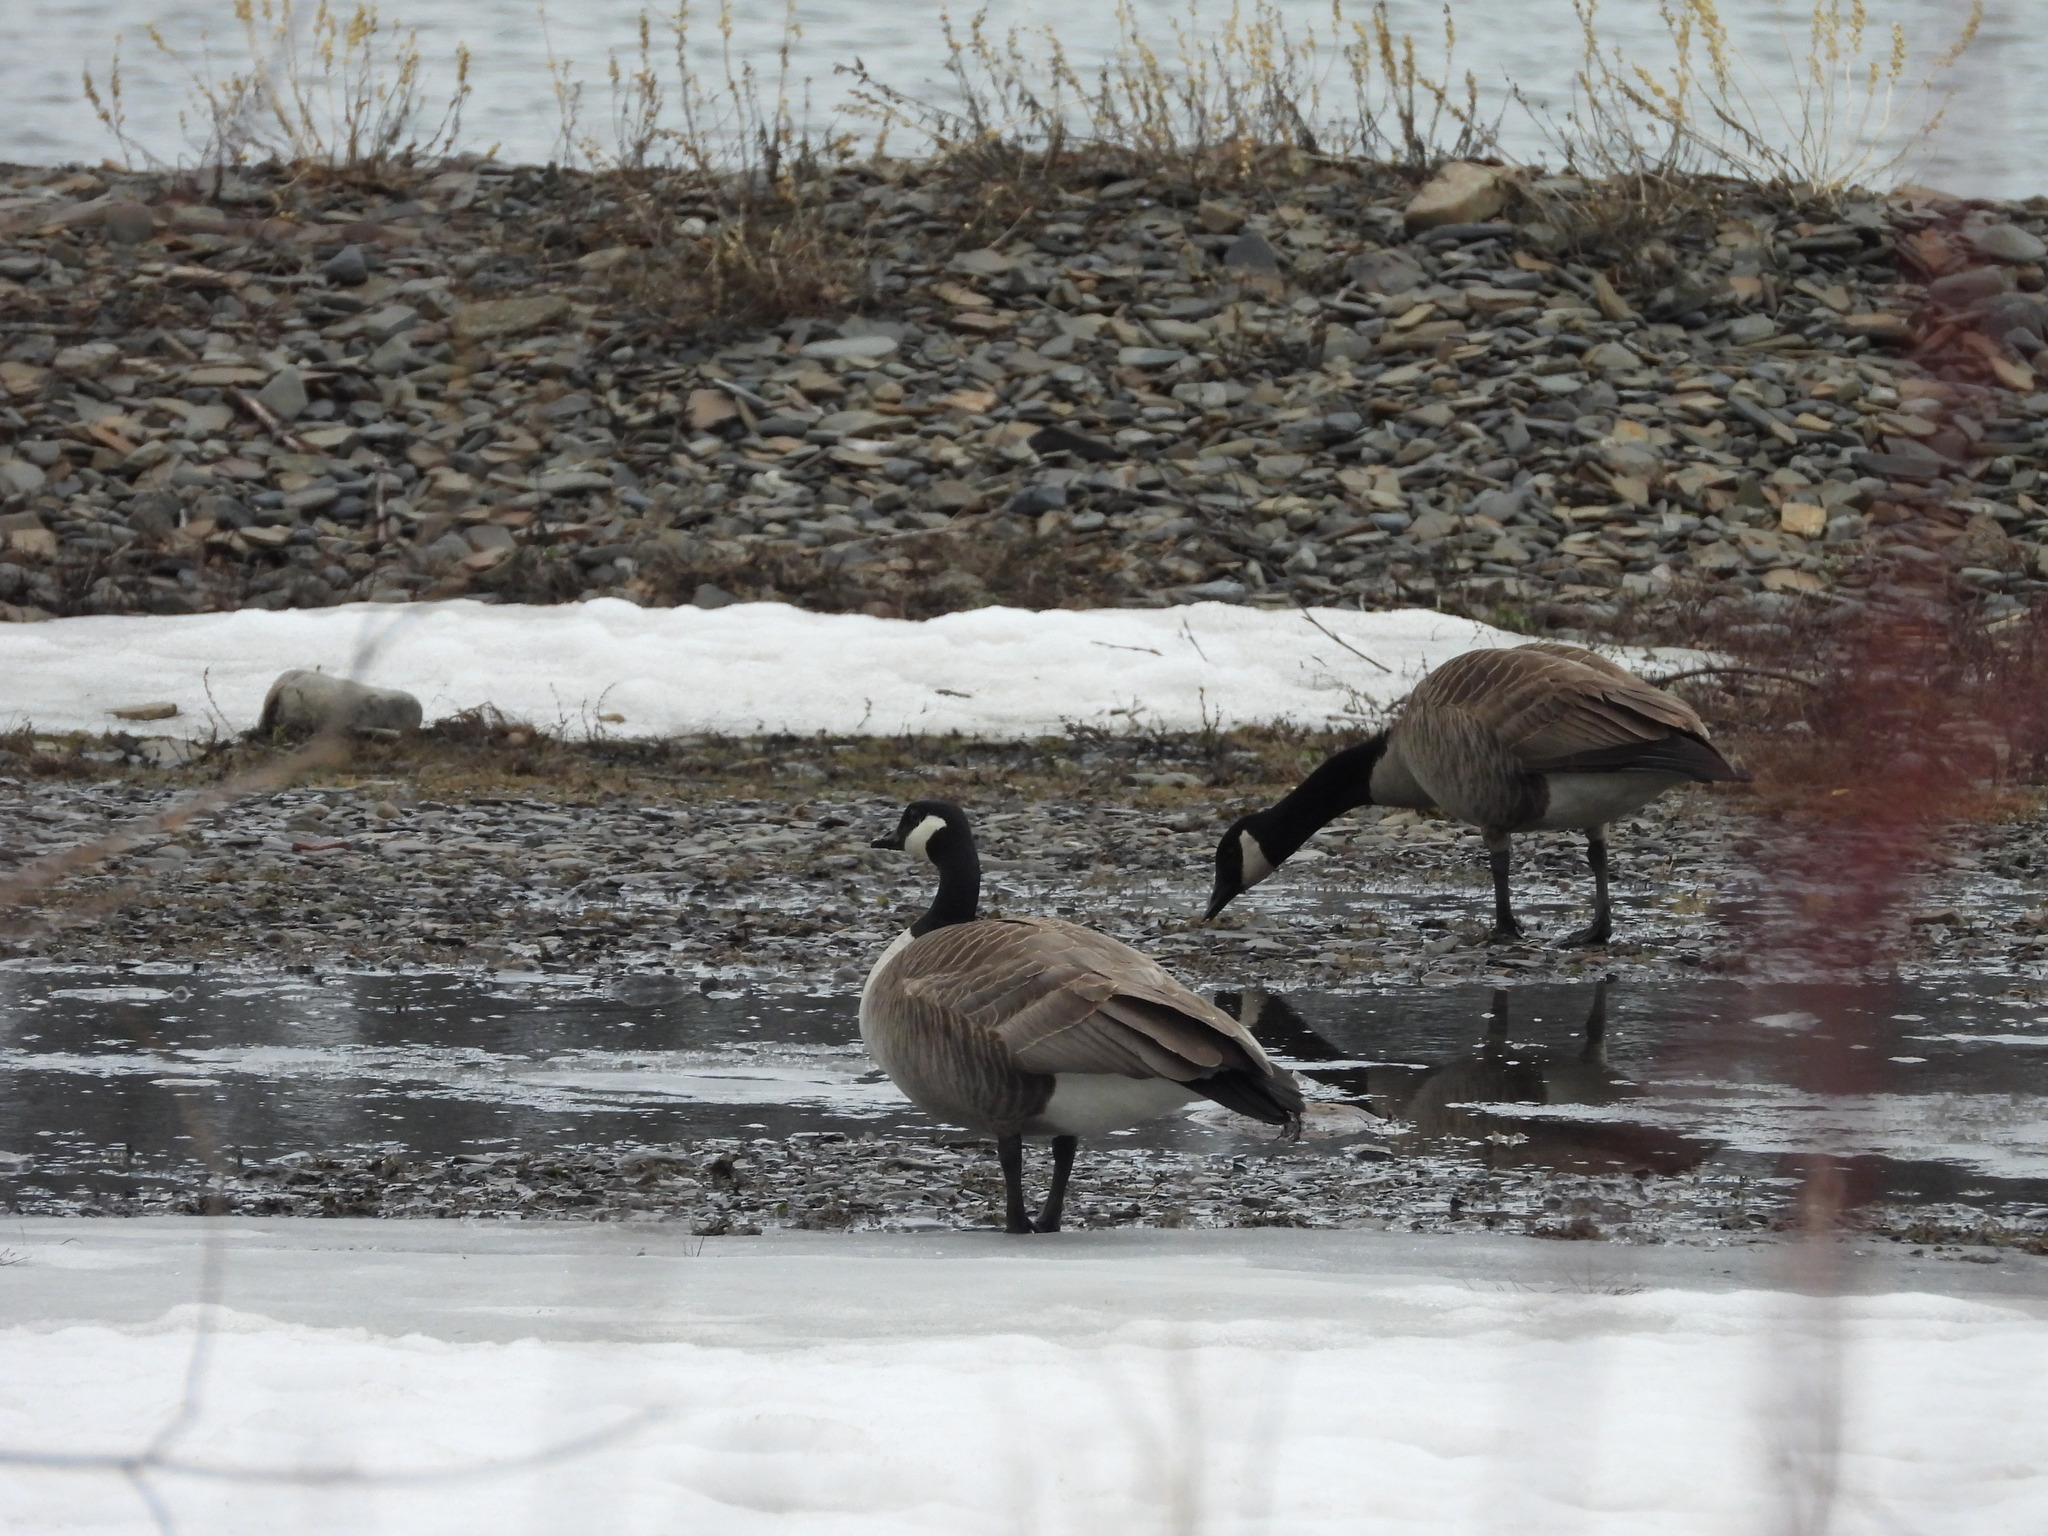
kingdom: Animalia
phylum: Chordata
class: Aves
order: Anseriformes
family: Anatidae
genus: Branta
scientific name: Branta canadensis
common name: Canada goose
